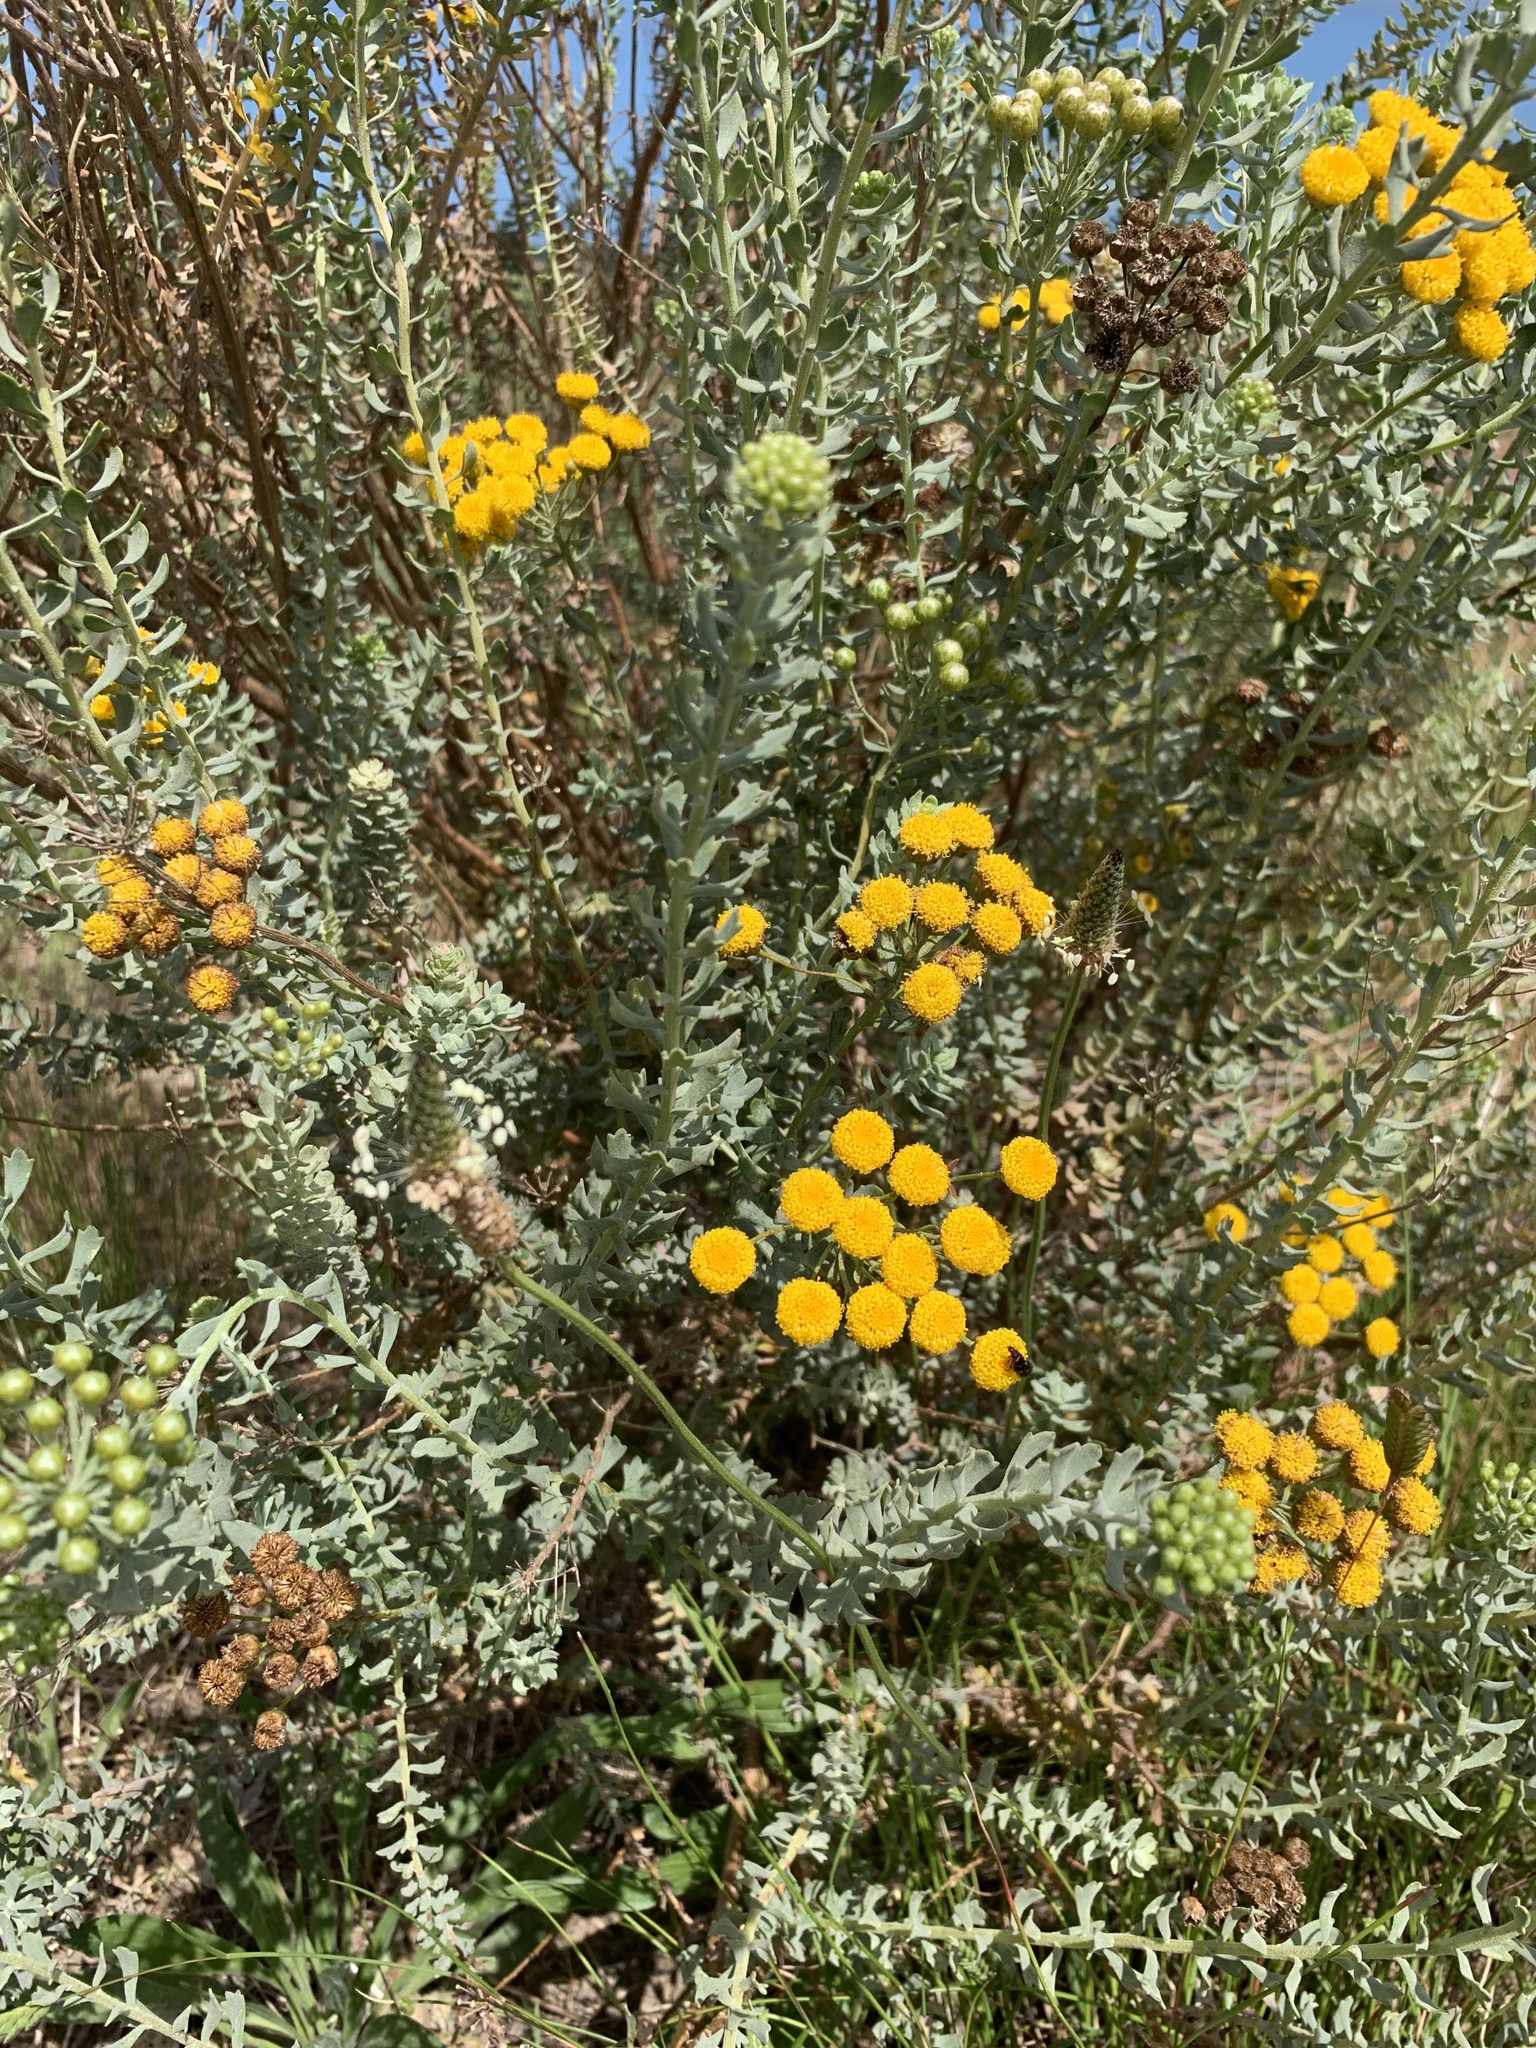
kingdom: Plantae
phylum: Tracheophyta
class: Magnoliopsida
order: Asterales
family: Asteraceae
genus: Athanasia
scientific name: Athanasia trifurcata
